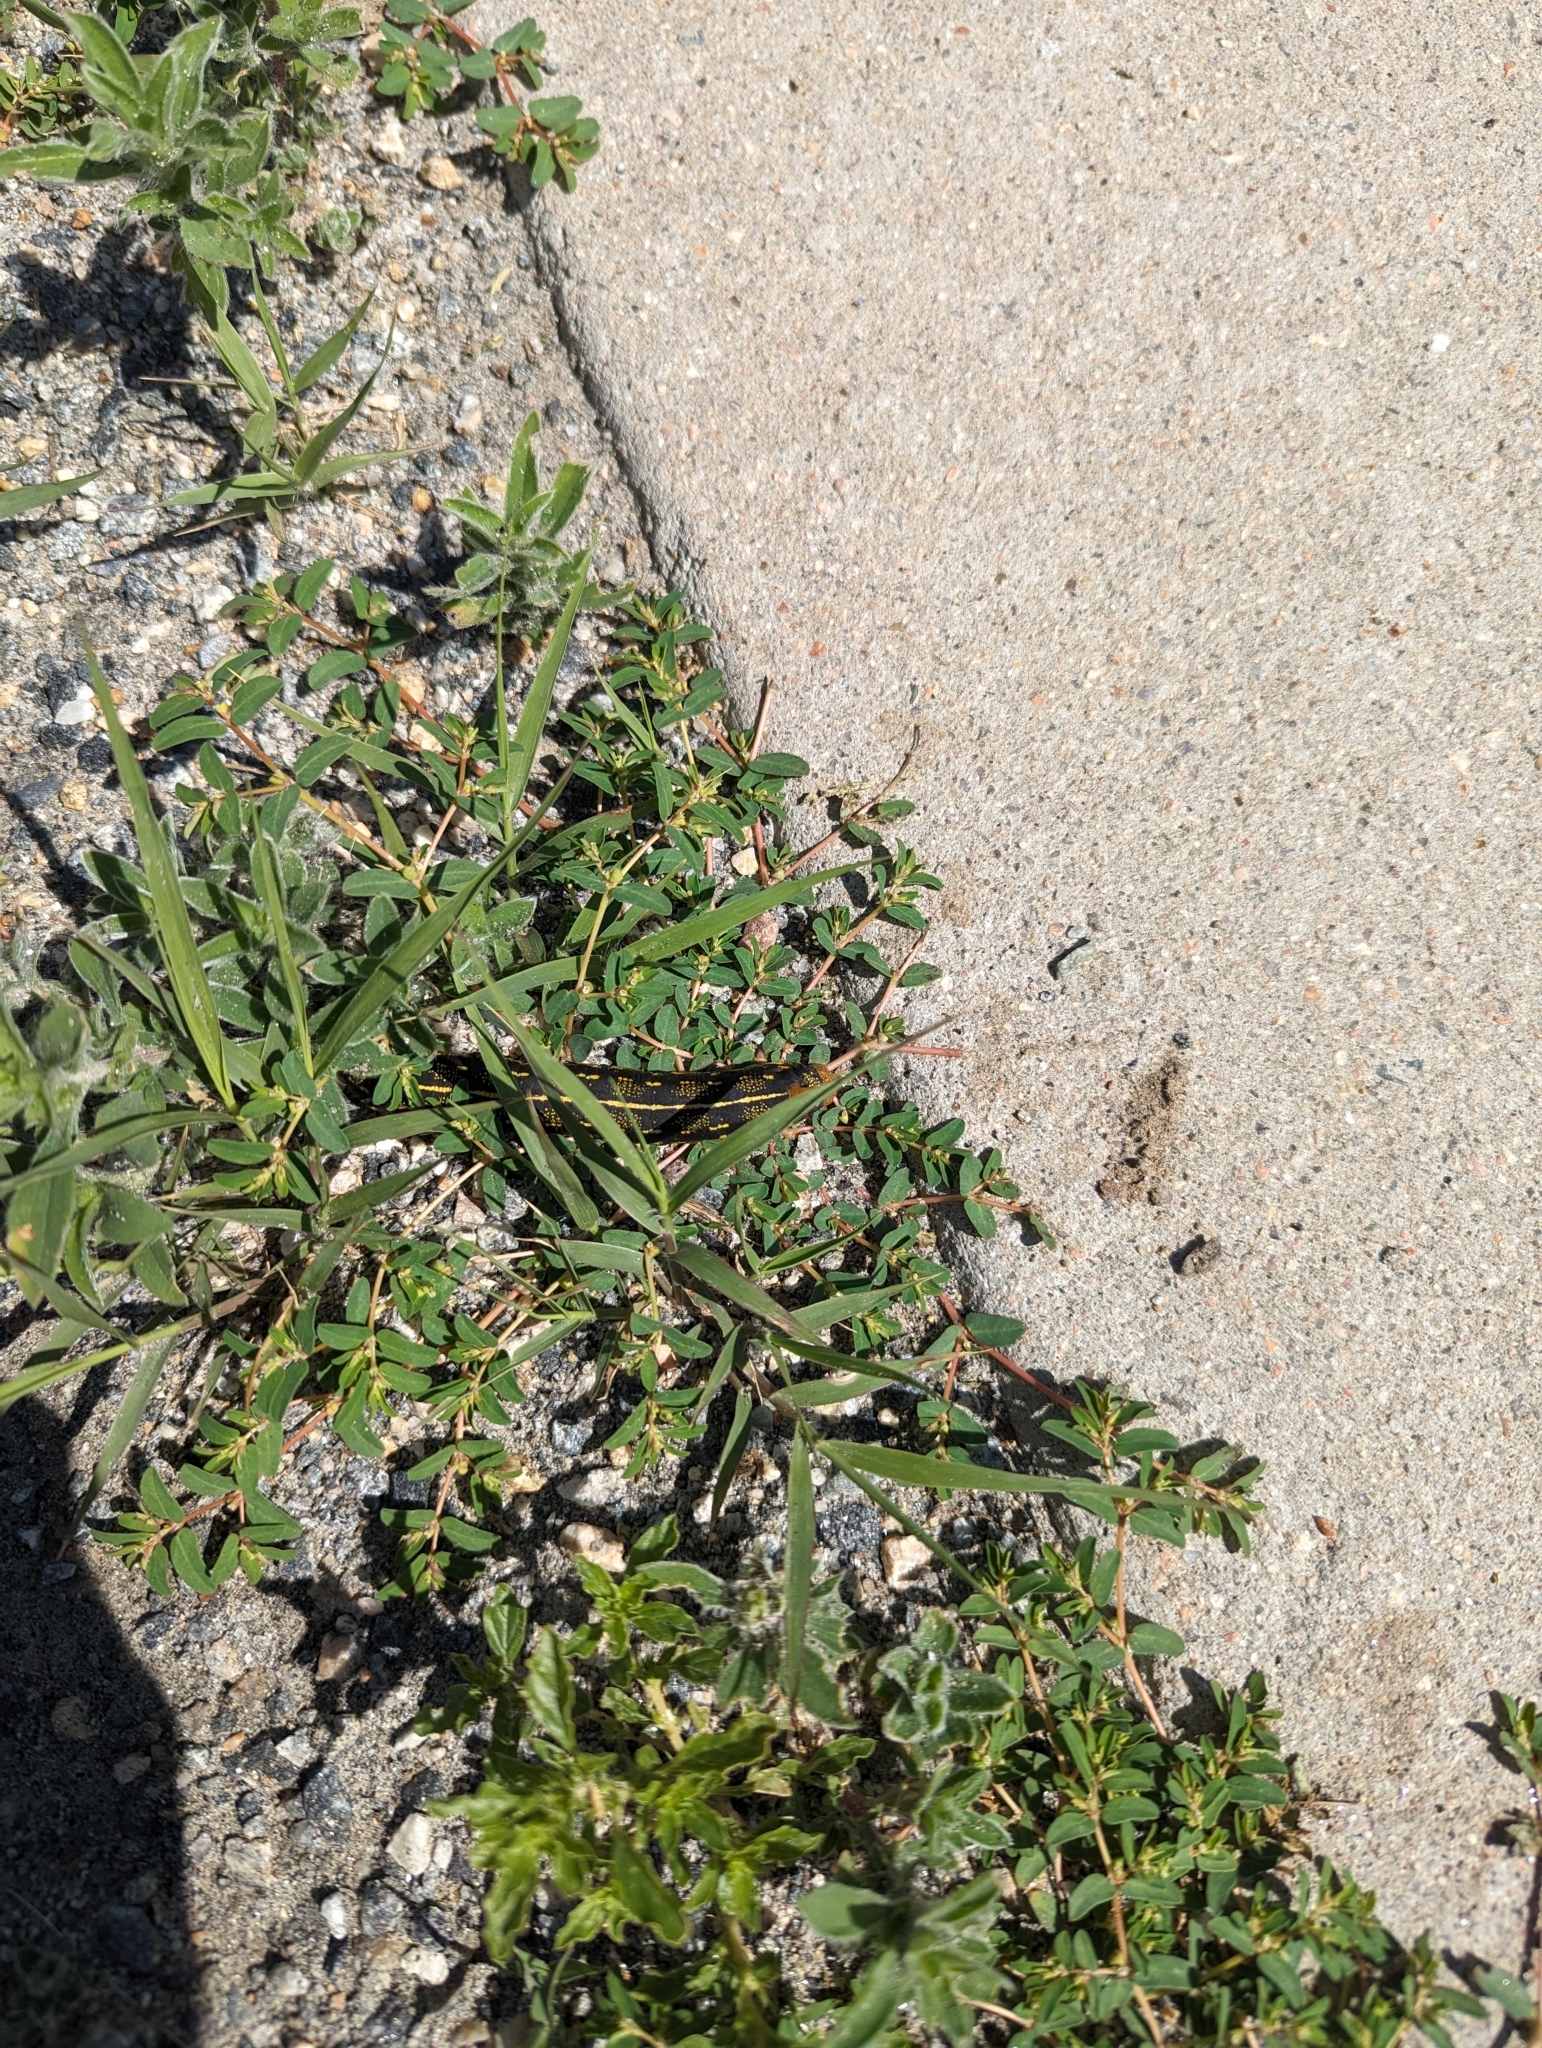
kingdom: Animalia
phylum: Arthropoda
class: Insecta
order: Lepidoptera
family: Sphingidae
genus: Hyles
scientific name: Hyles lineata
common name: White-lined sphinx
